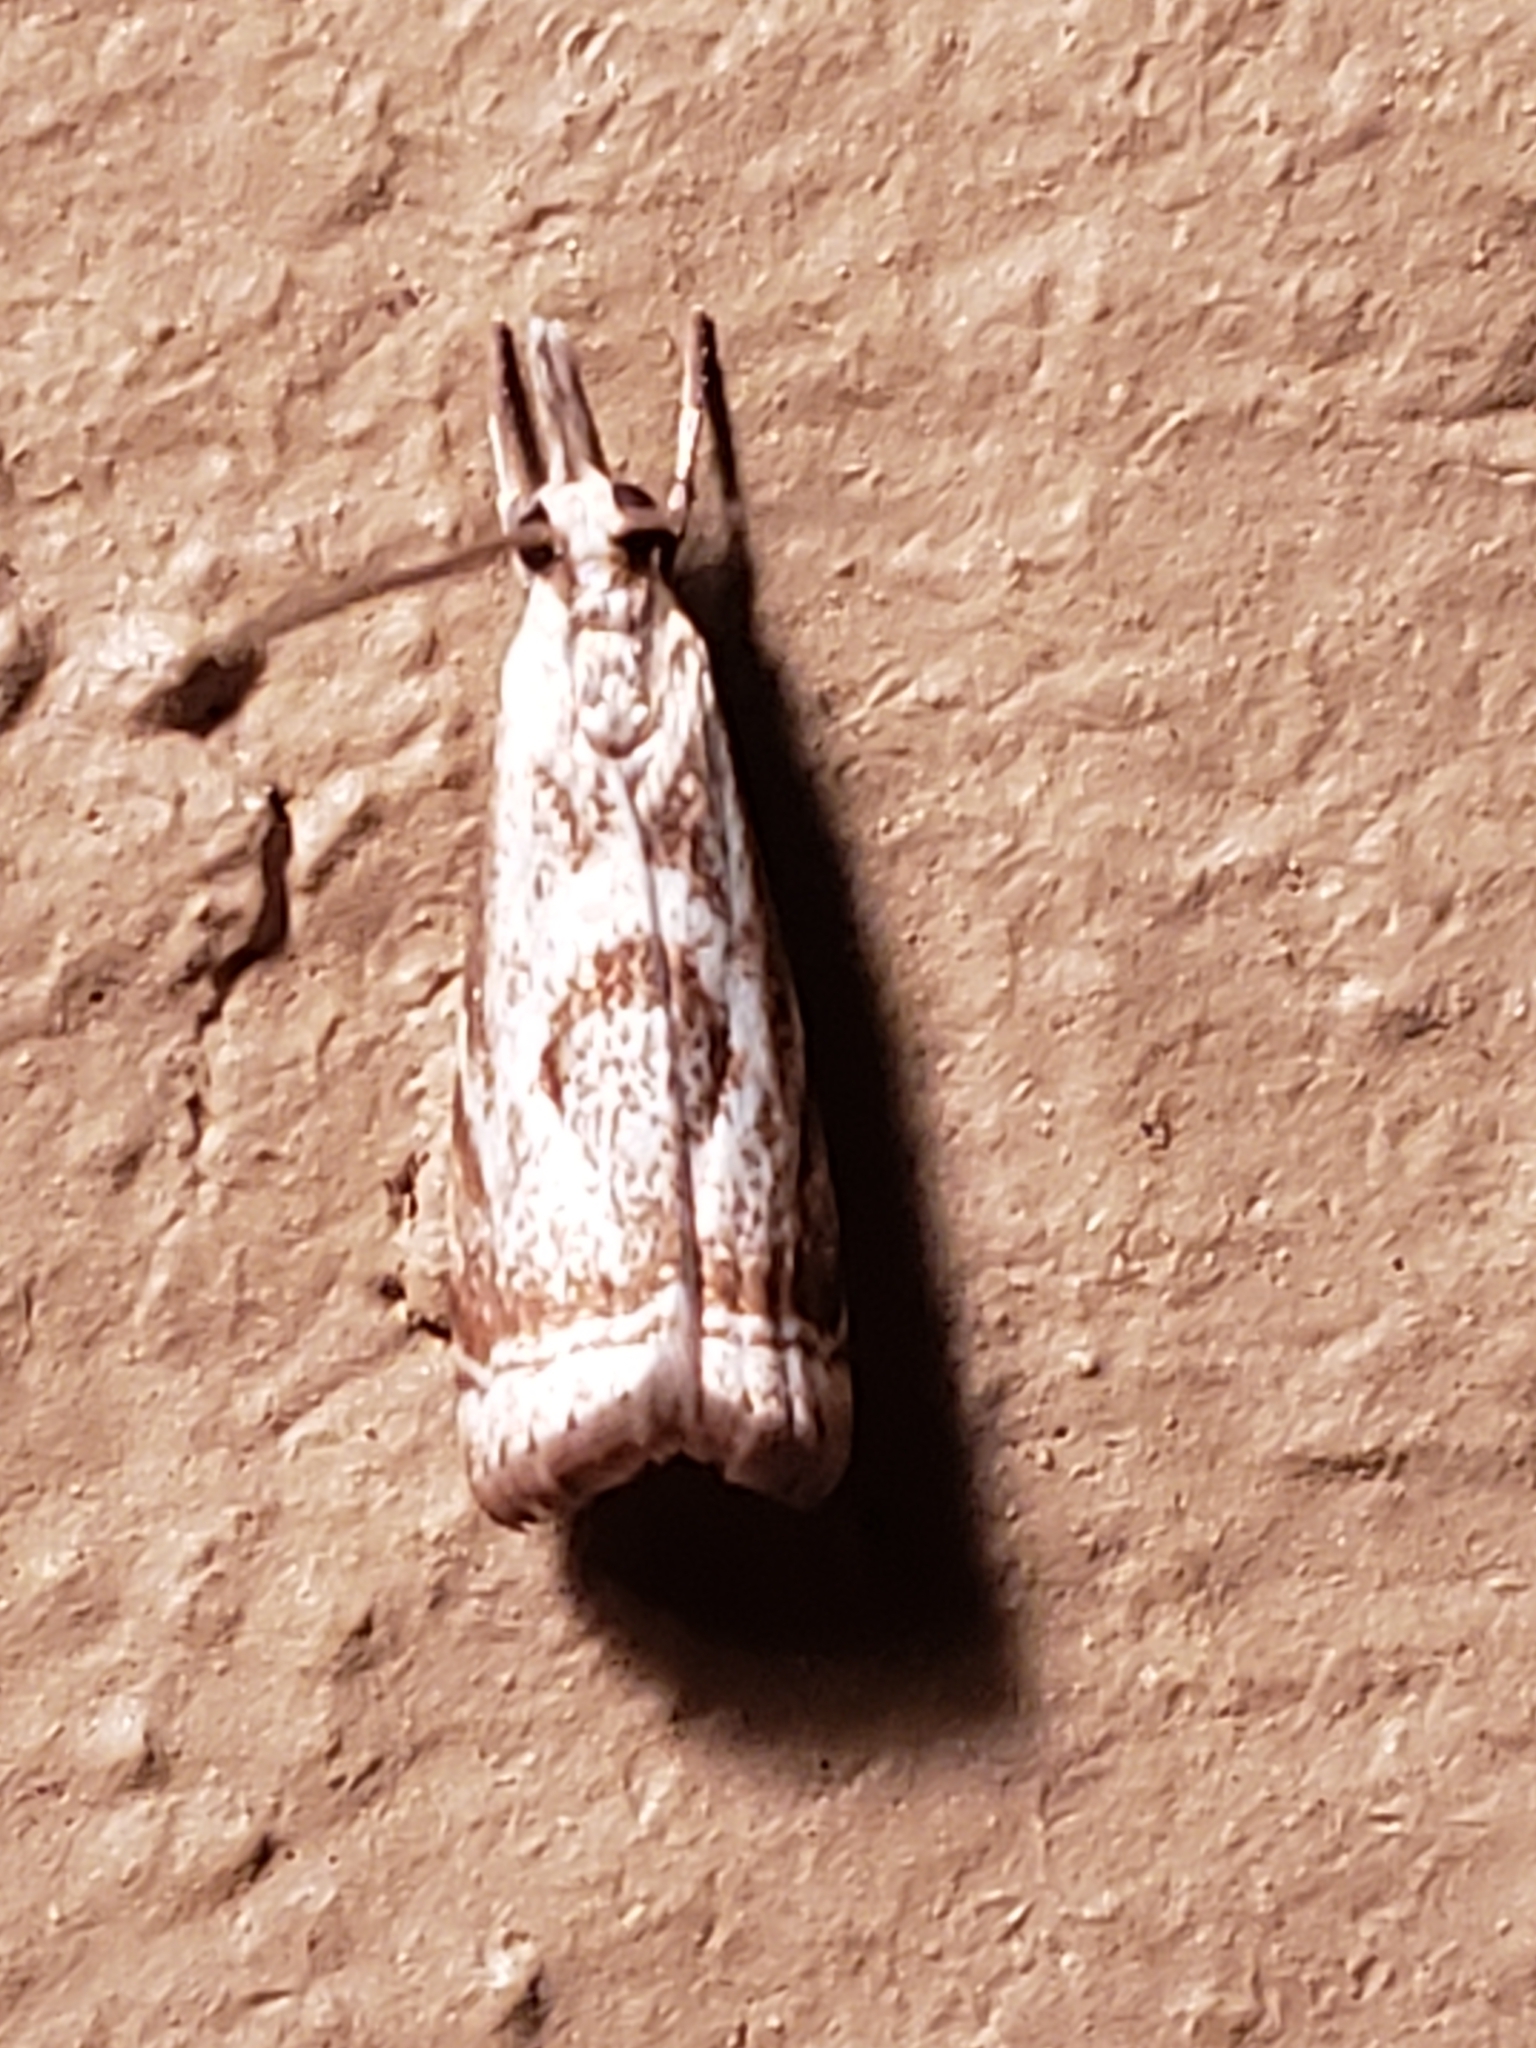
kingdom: Animalia
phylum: Arthropoda
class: Insecta
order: Lepidoptera
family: Crambidae
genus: Microcrambus
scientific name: Microcrambus elegans
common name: Elegant grass-veneer
